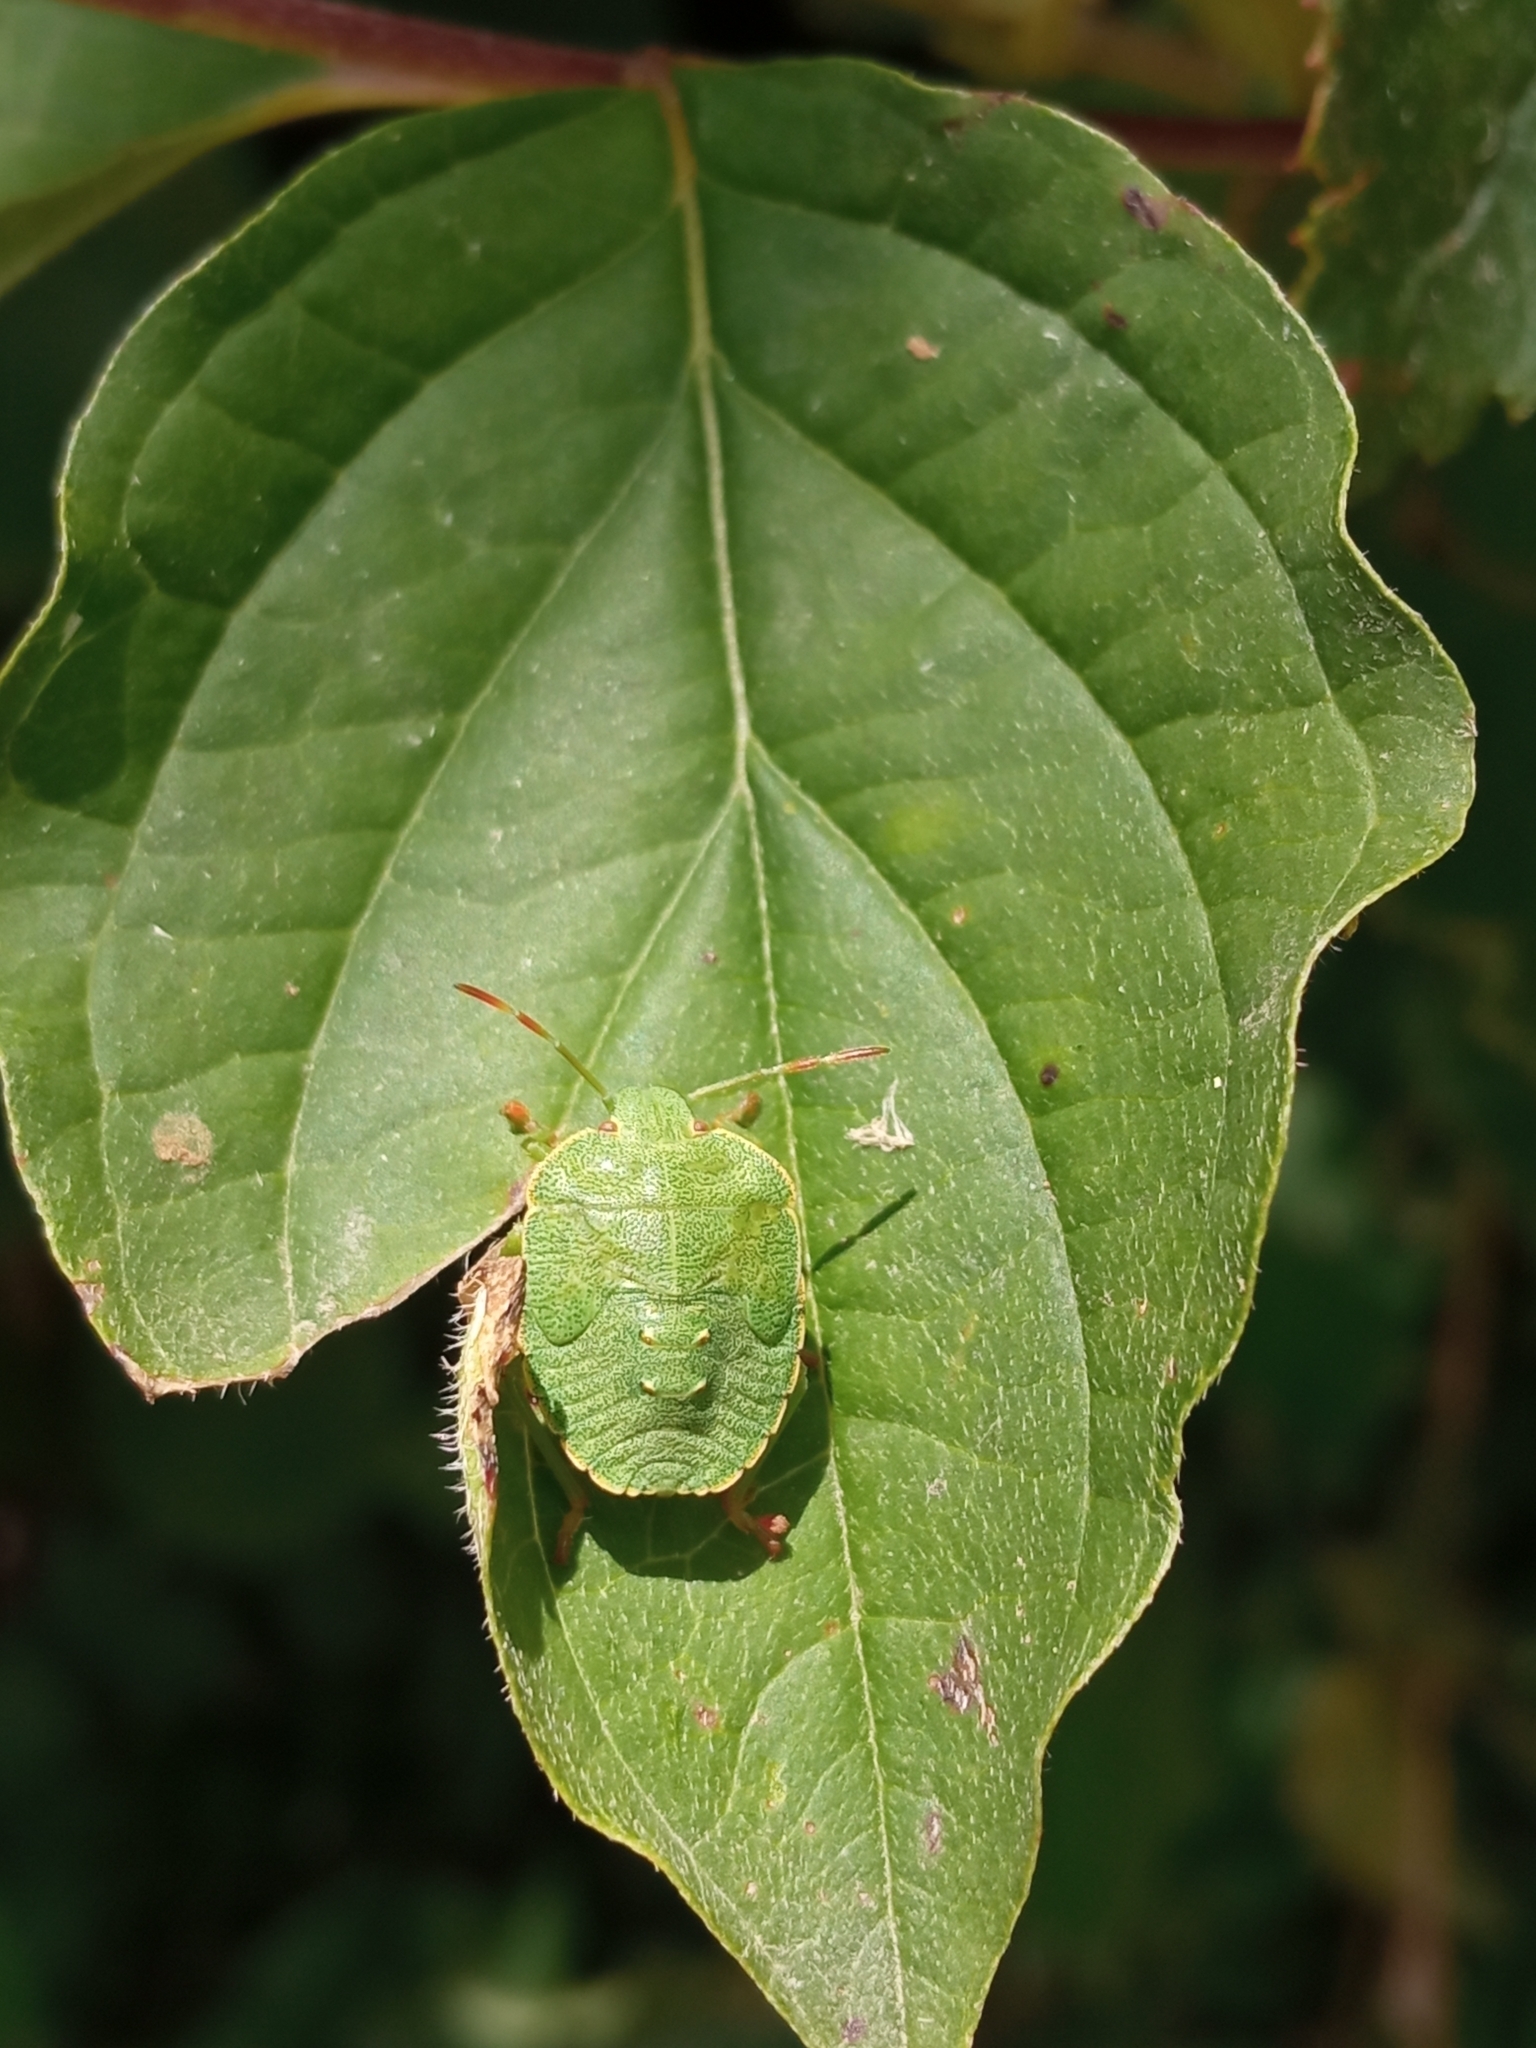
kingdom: Animalia
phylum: Arthropoda
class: Insecta
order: Hemiptera
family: Pentatomidae
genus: Palomena
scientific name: Palomena prasina
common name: Green shieldbug
